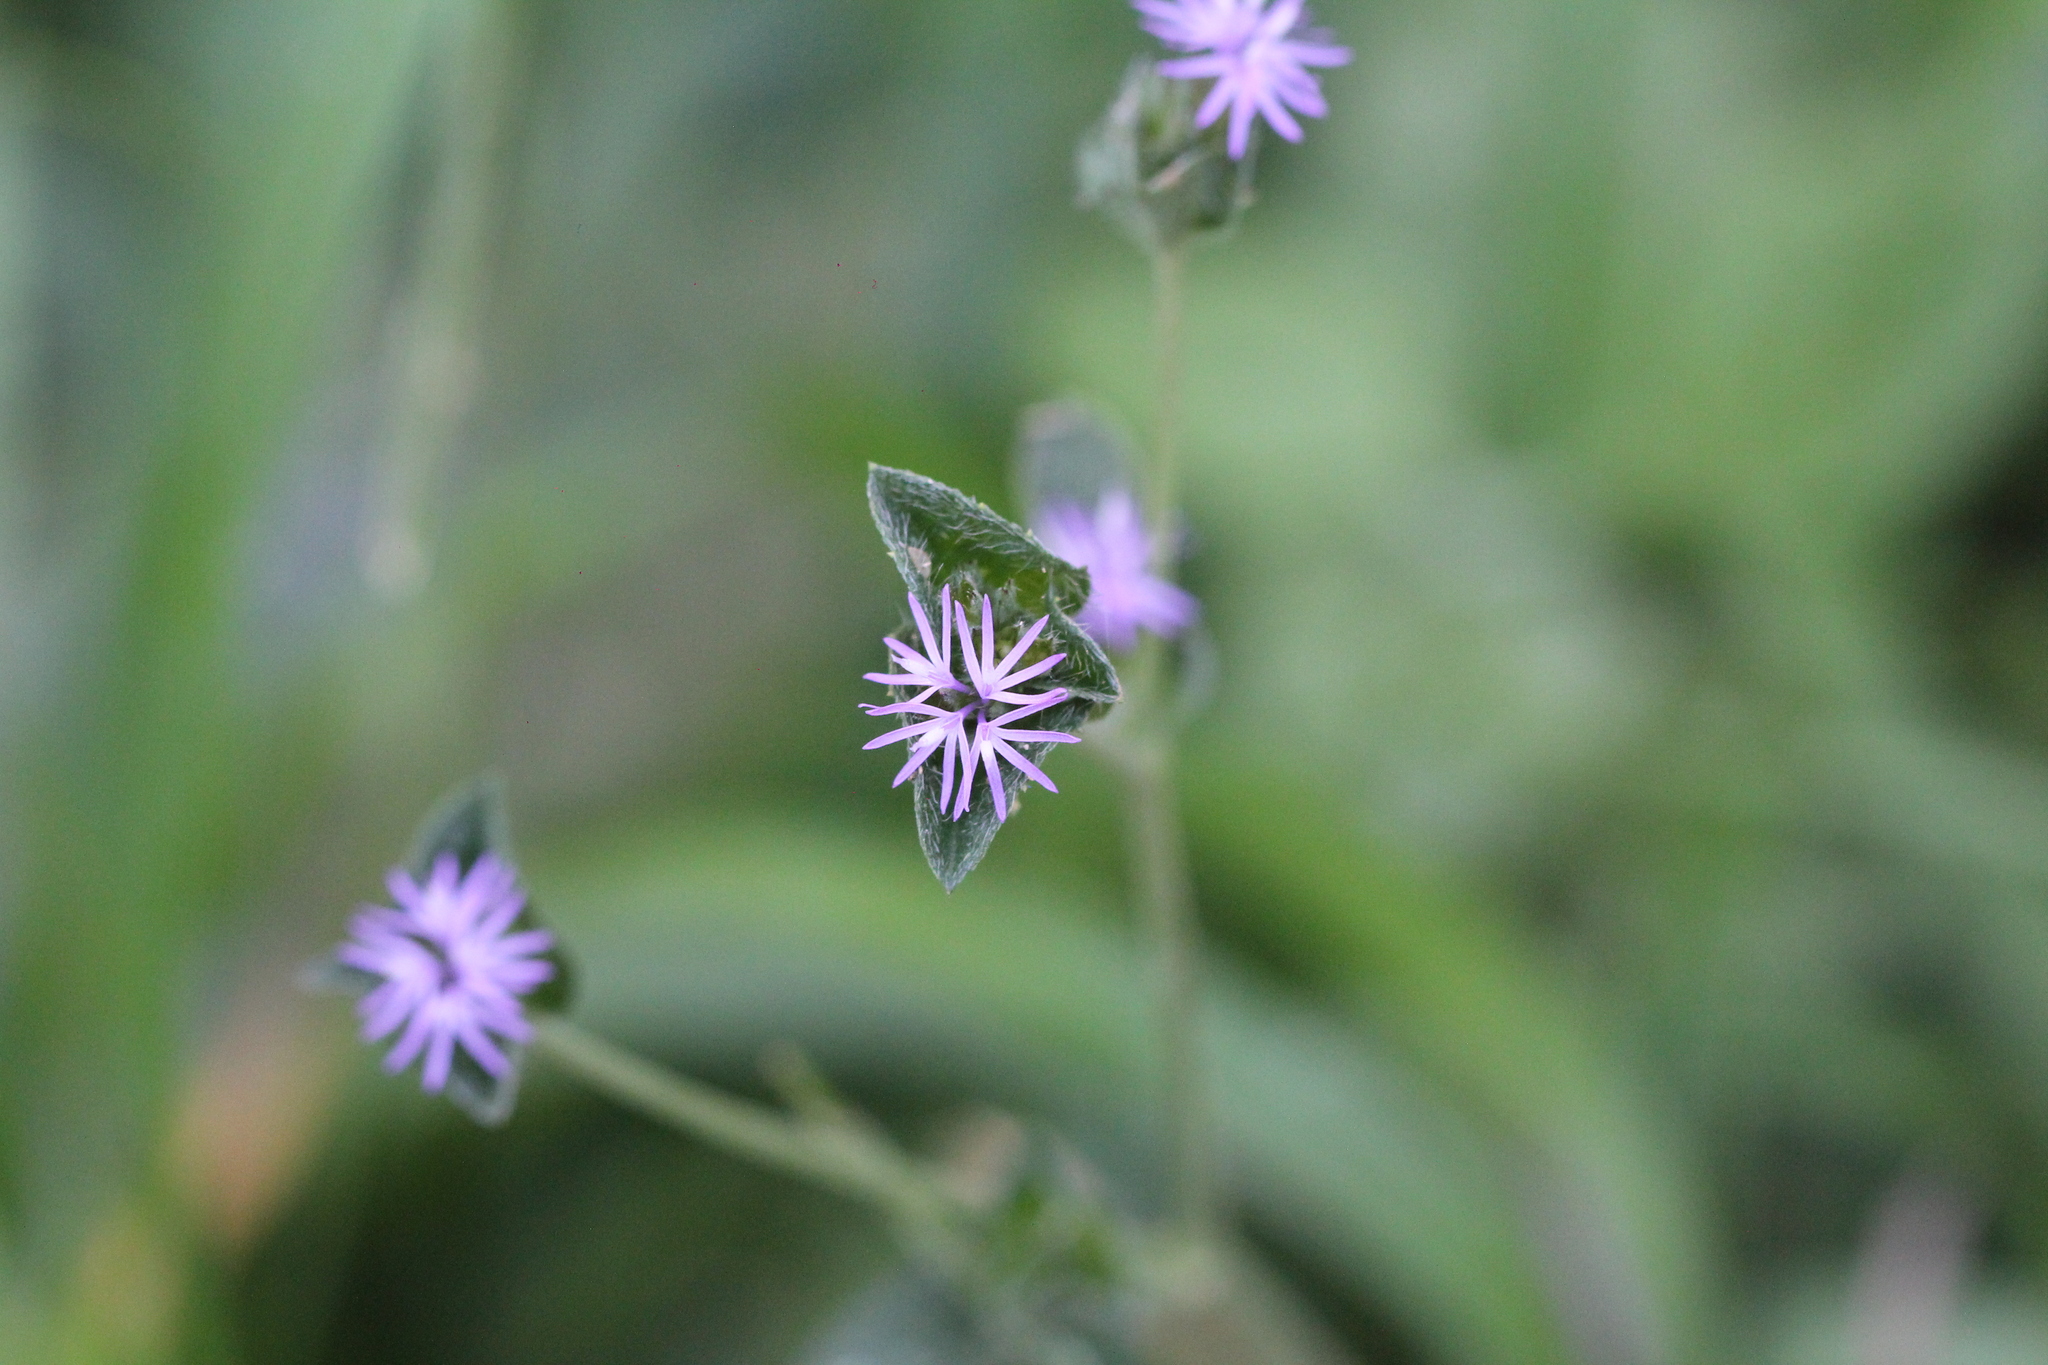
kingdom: Plantae
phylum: Tracheophyta
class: Magnoliopsida
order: Asterales
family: Asteraceae
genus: Elephantopus
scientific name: Elephantopus mollis
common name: Soft elephantsfoot
